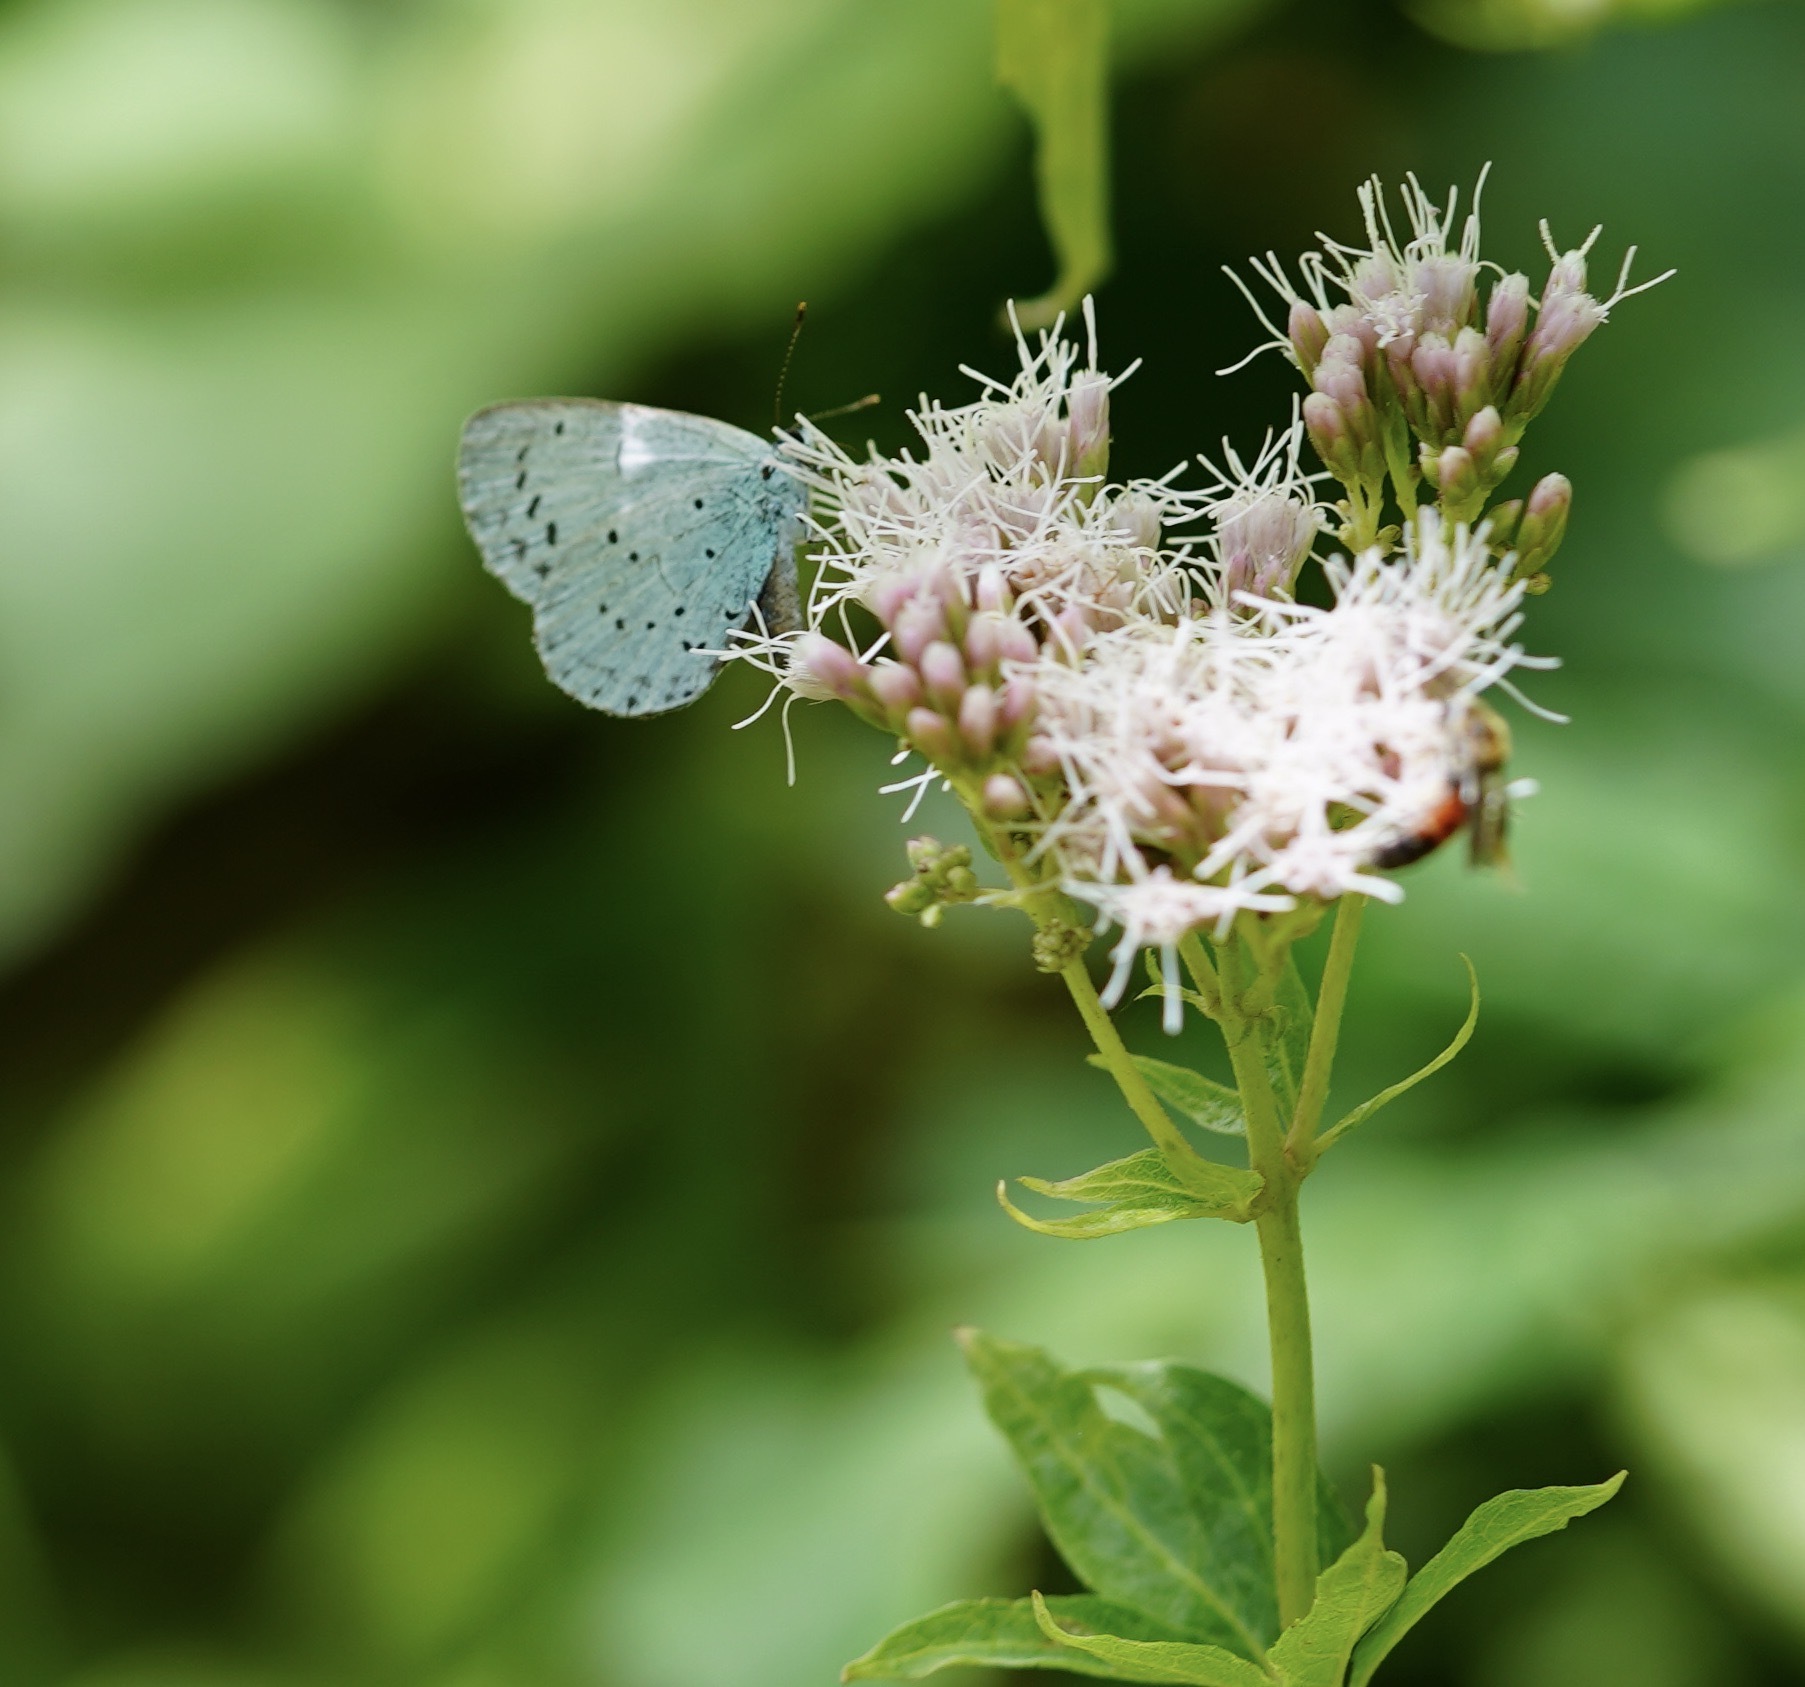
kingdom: Animalia
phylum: Arthropoda
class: Insecta
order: Lepidoptera
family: Lycaenidae
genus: Celastrina
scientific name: Celastrina argiolus
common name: Holly blue
